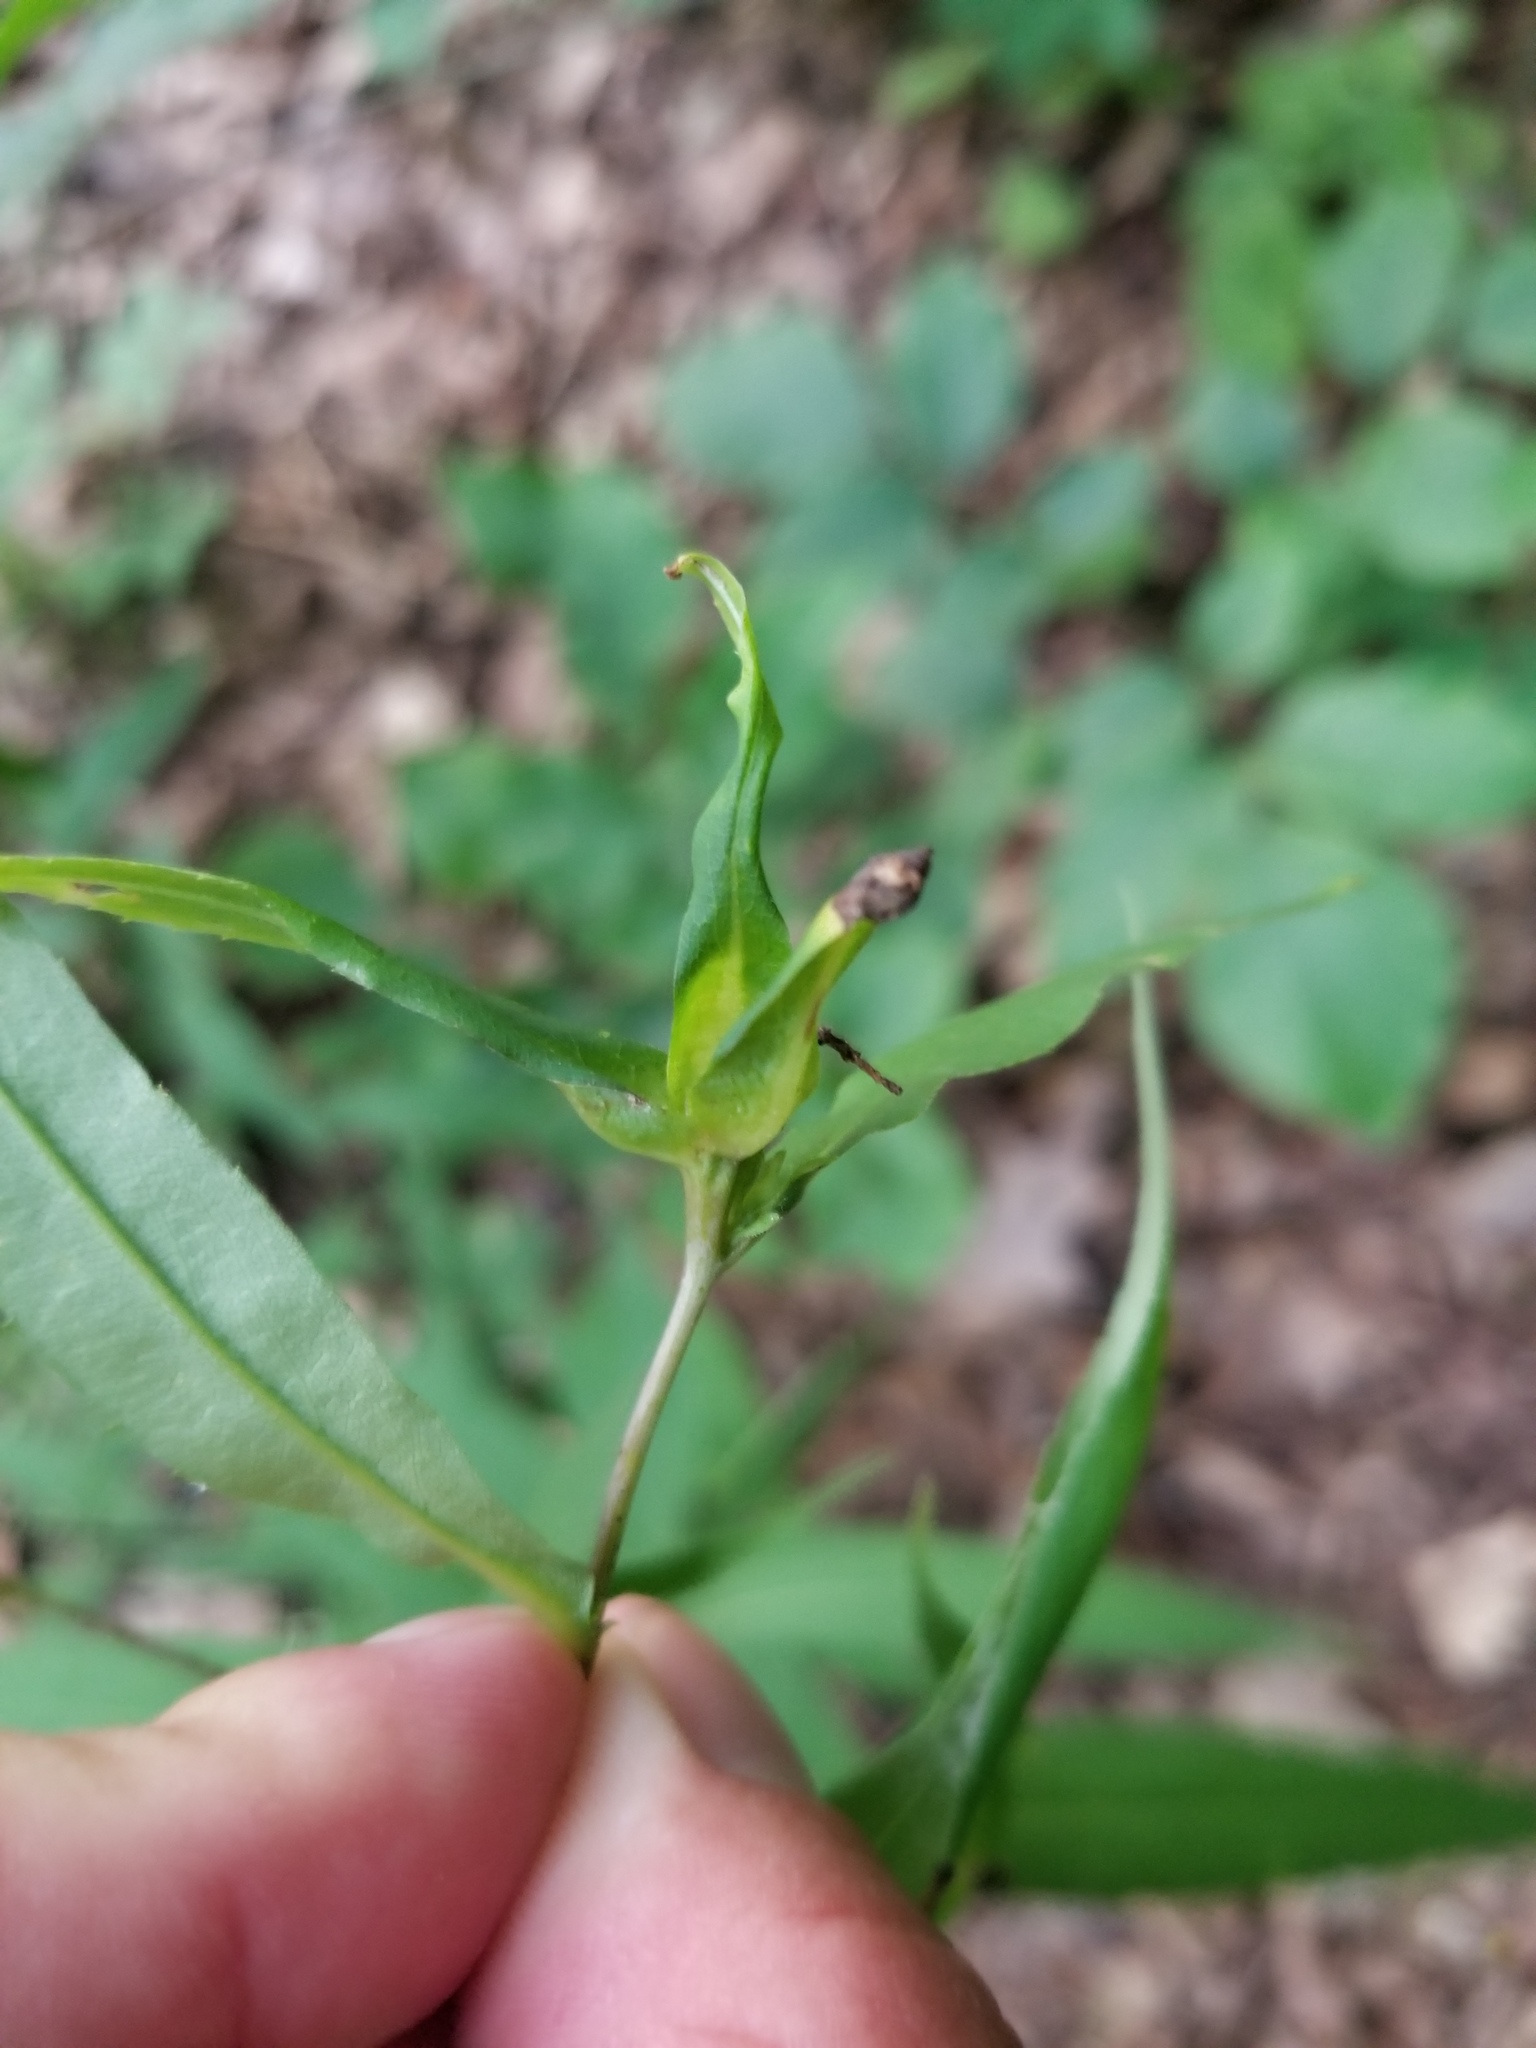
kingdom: Animalia
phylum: Arthropoda
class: Insecta
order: Diptera
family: Cecidomyiidae
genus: Dasineura
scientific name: Dasineura folliculi
